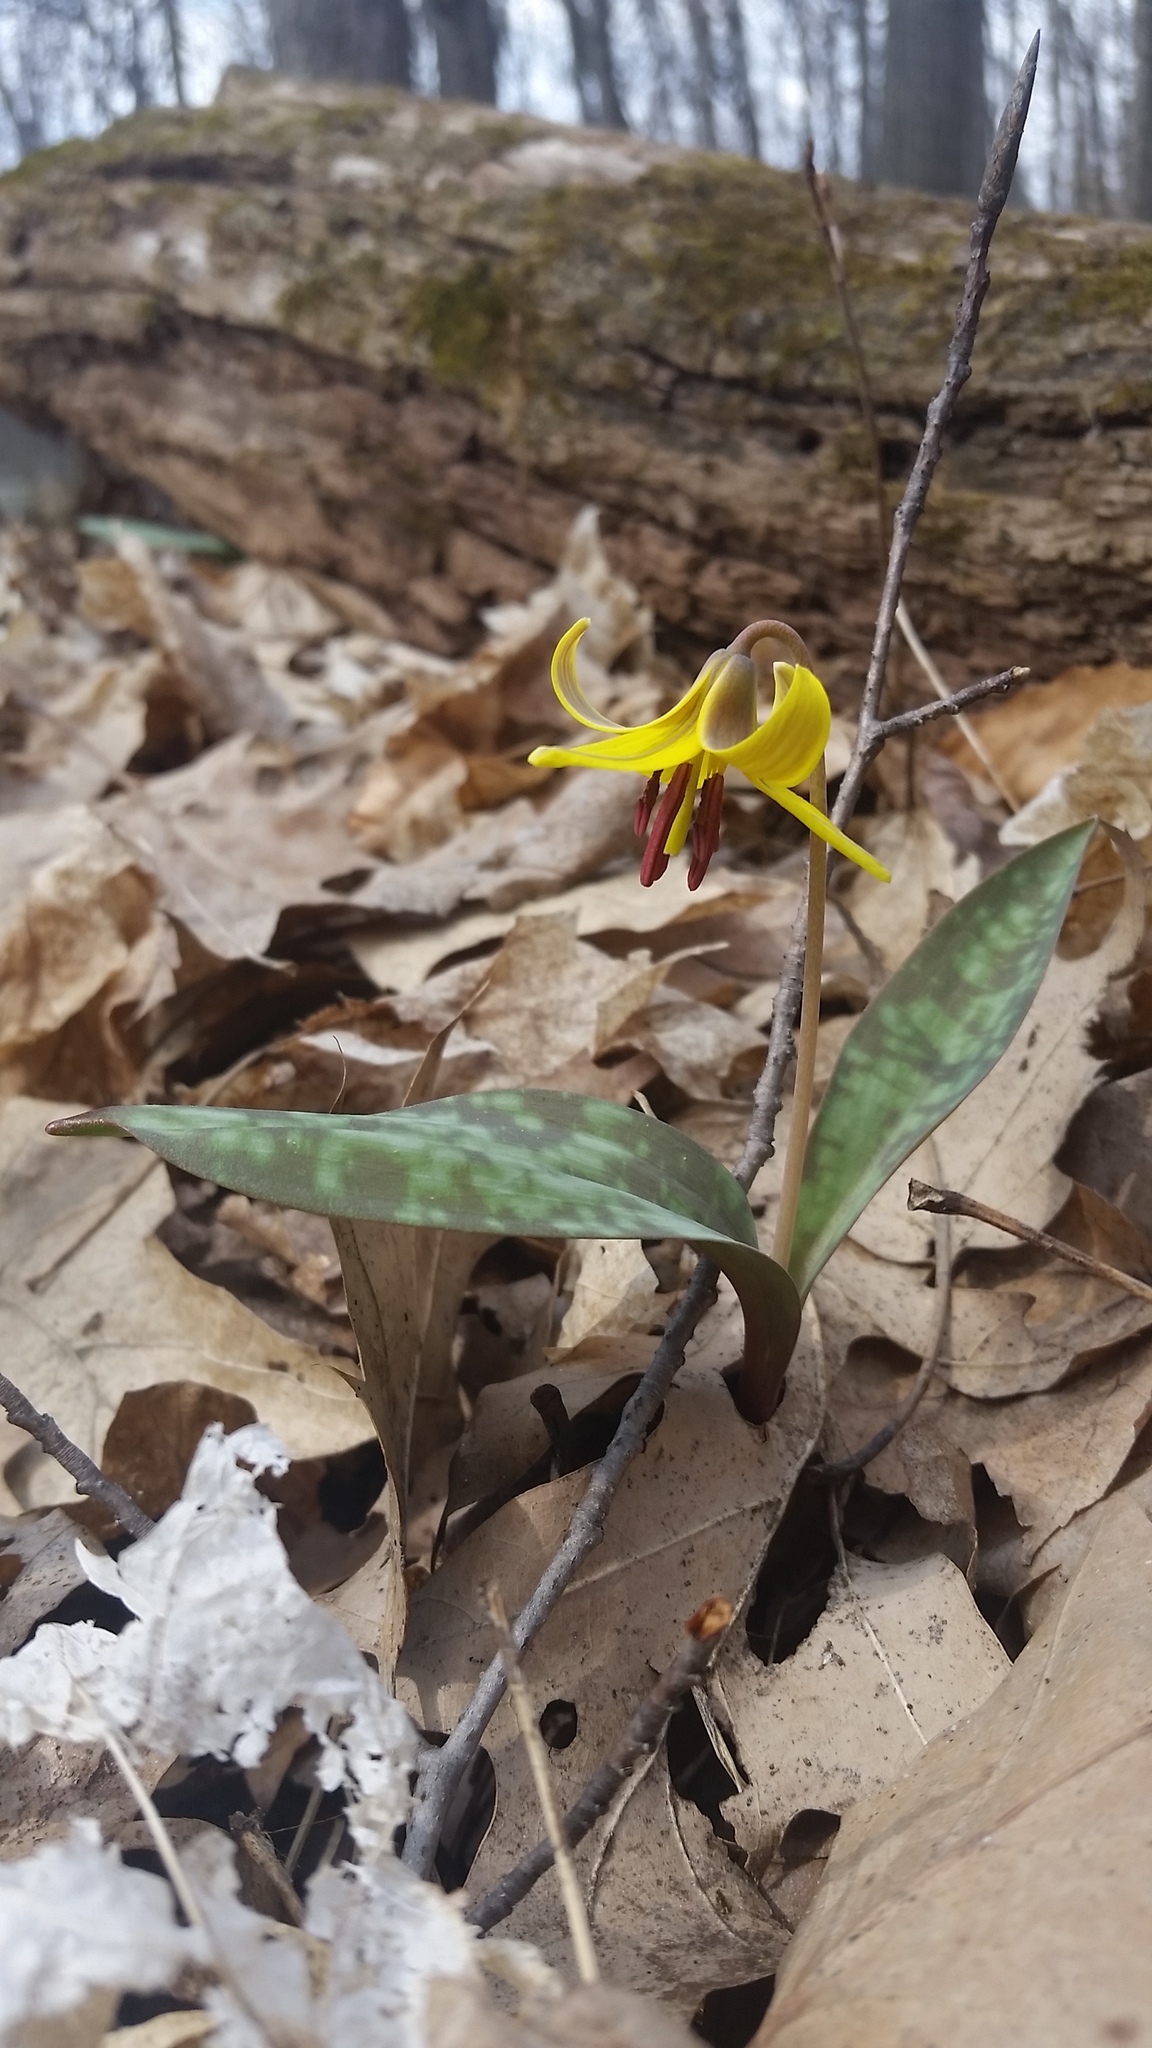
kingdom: Plantae
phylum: Tracheophyta
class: Liliopsida
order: Liliales
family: Liliaceae
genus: Erythronium
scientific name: Erythronium americanum
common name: Yellow adder's-tongue
